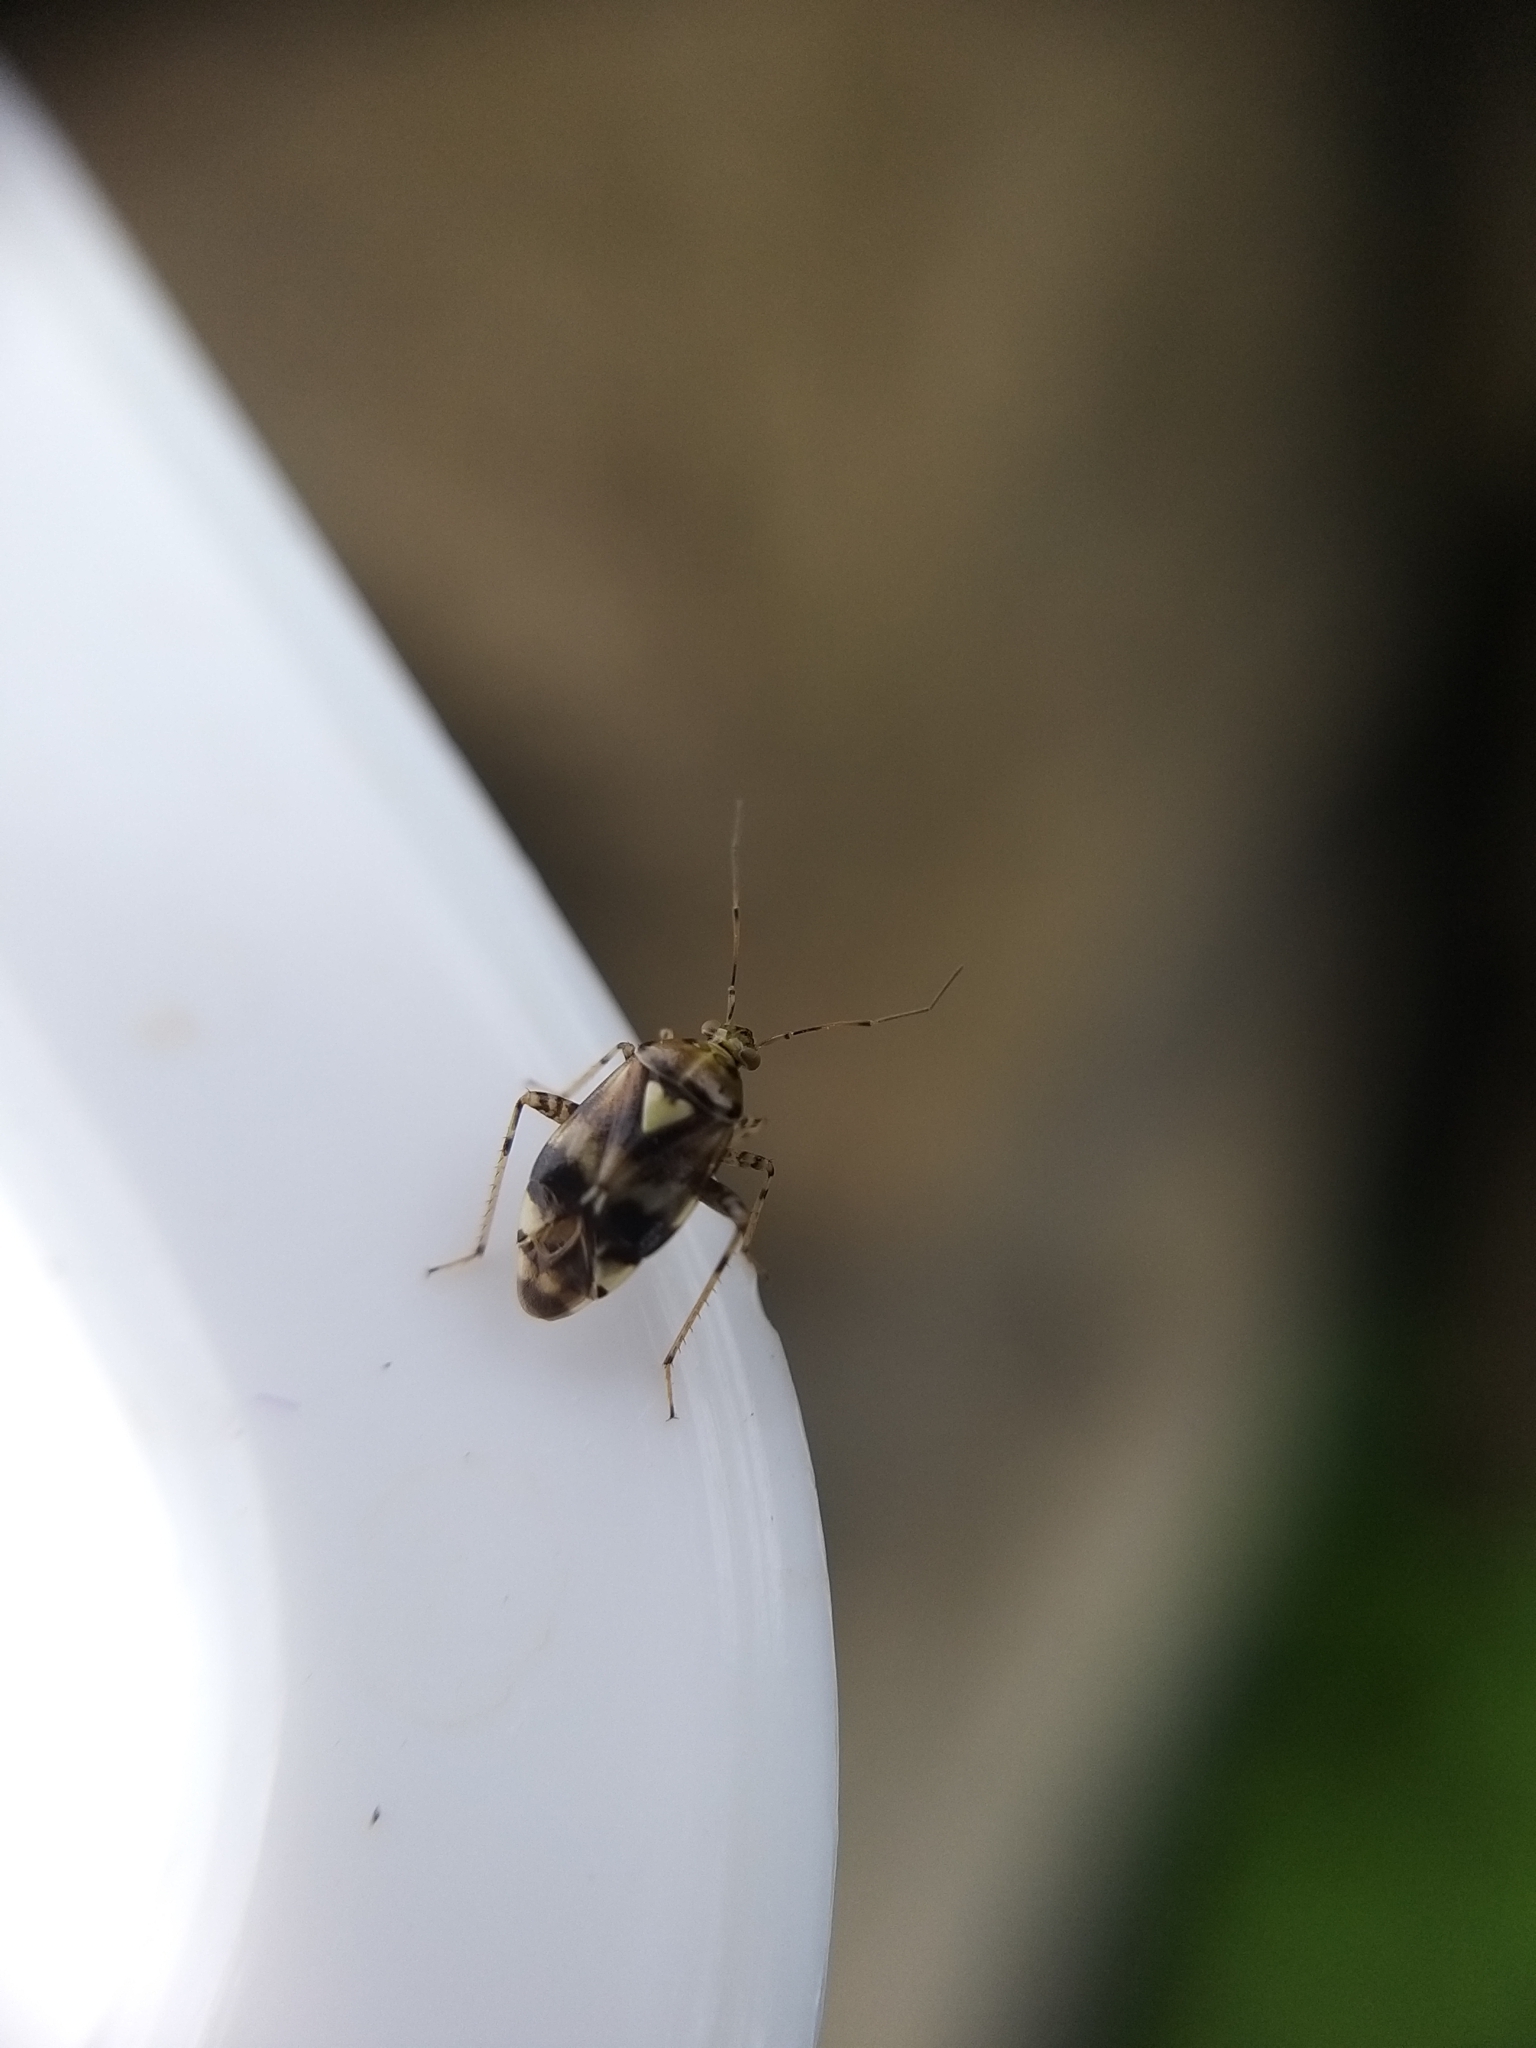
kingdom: Animalia
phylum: Arthropoda
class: Insecta
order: Hemiptera
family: Miridae
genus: Liocoris
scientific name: Liocoris tripustulatus
